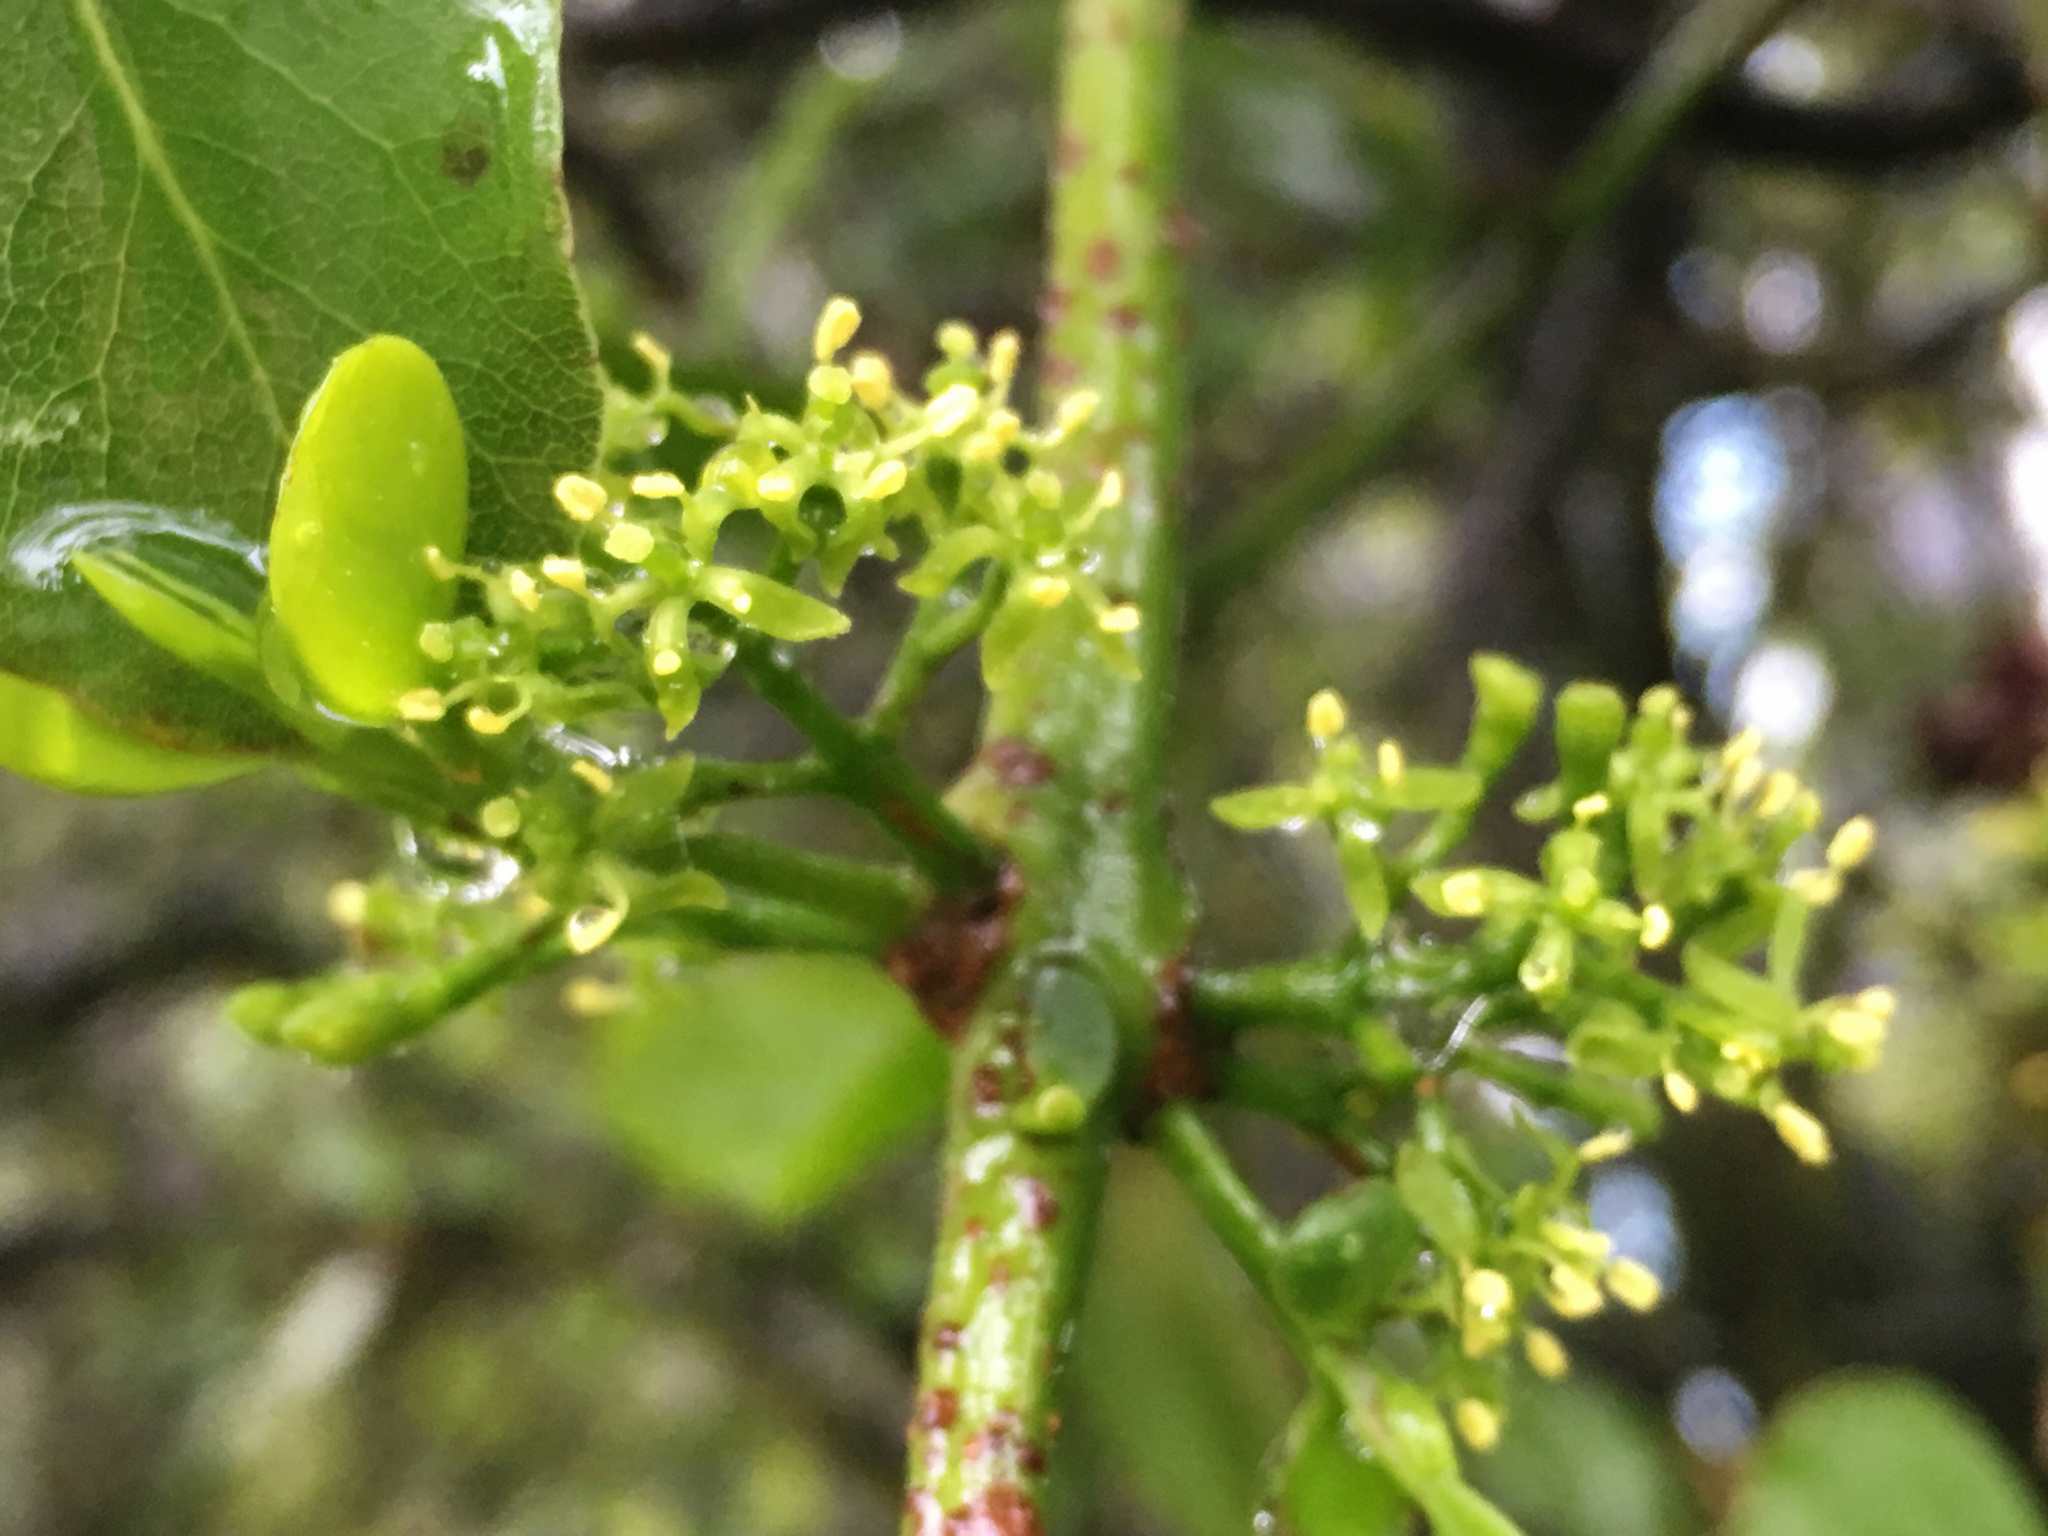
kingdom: Plantae
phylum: Tracheophyta
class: Magnoliopsida
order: Santalales
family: Loranthaceae
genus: Ileostylus
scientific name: Ileostylus micranthus
